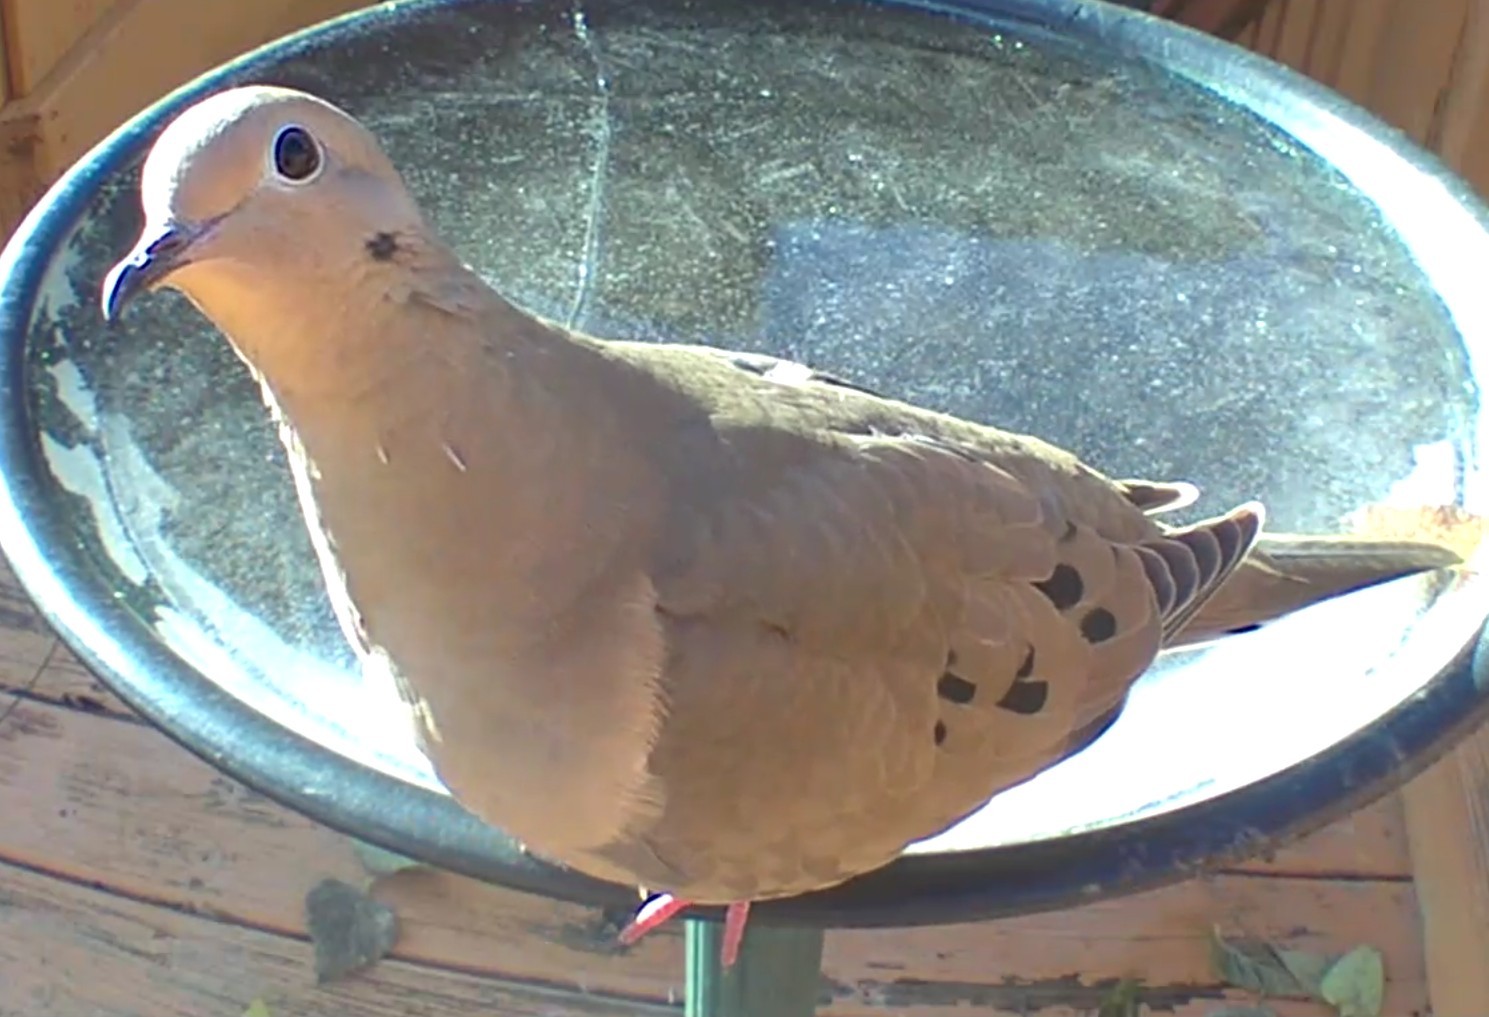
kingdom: Animalia
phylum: Chordata
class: Aves
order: Columbiformes
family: Columbidae
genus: Zenaida
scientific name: Zenaida macroura
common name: Mourning dove
